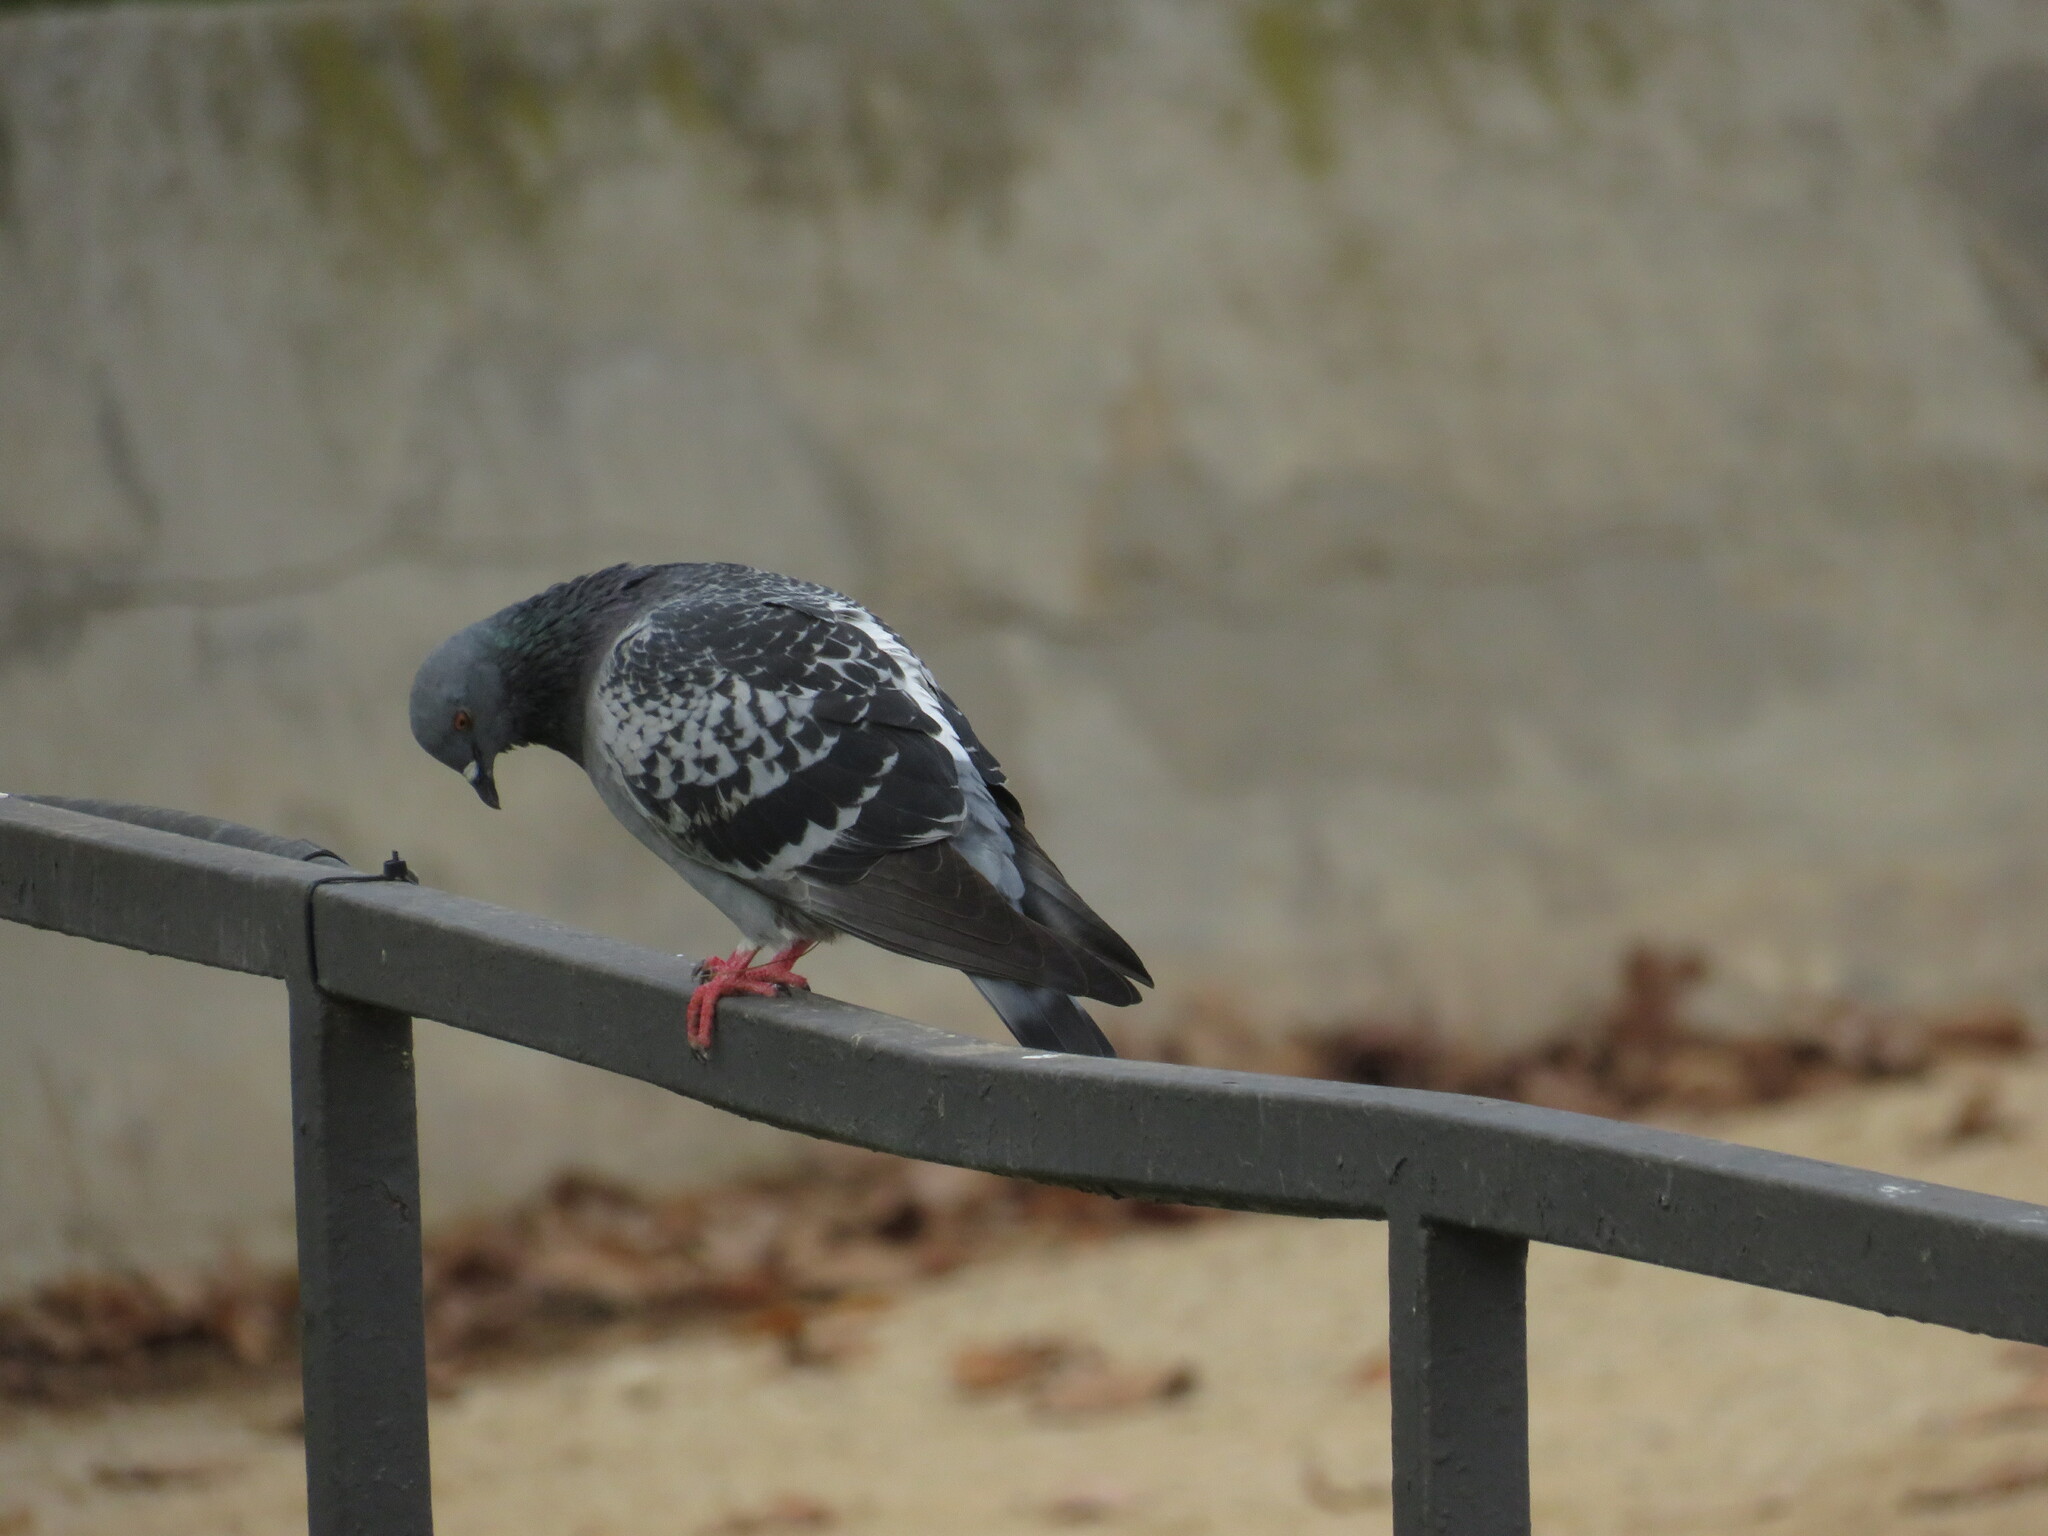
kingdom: Animalia
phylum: Chordata
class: Aves
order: Columbiformes
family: Columbidae
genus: Columba
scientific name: Columba livia
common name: Rock pigeon
